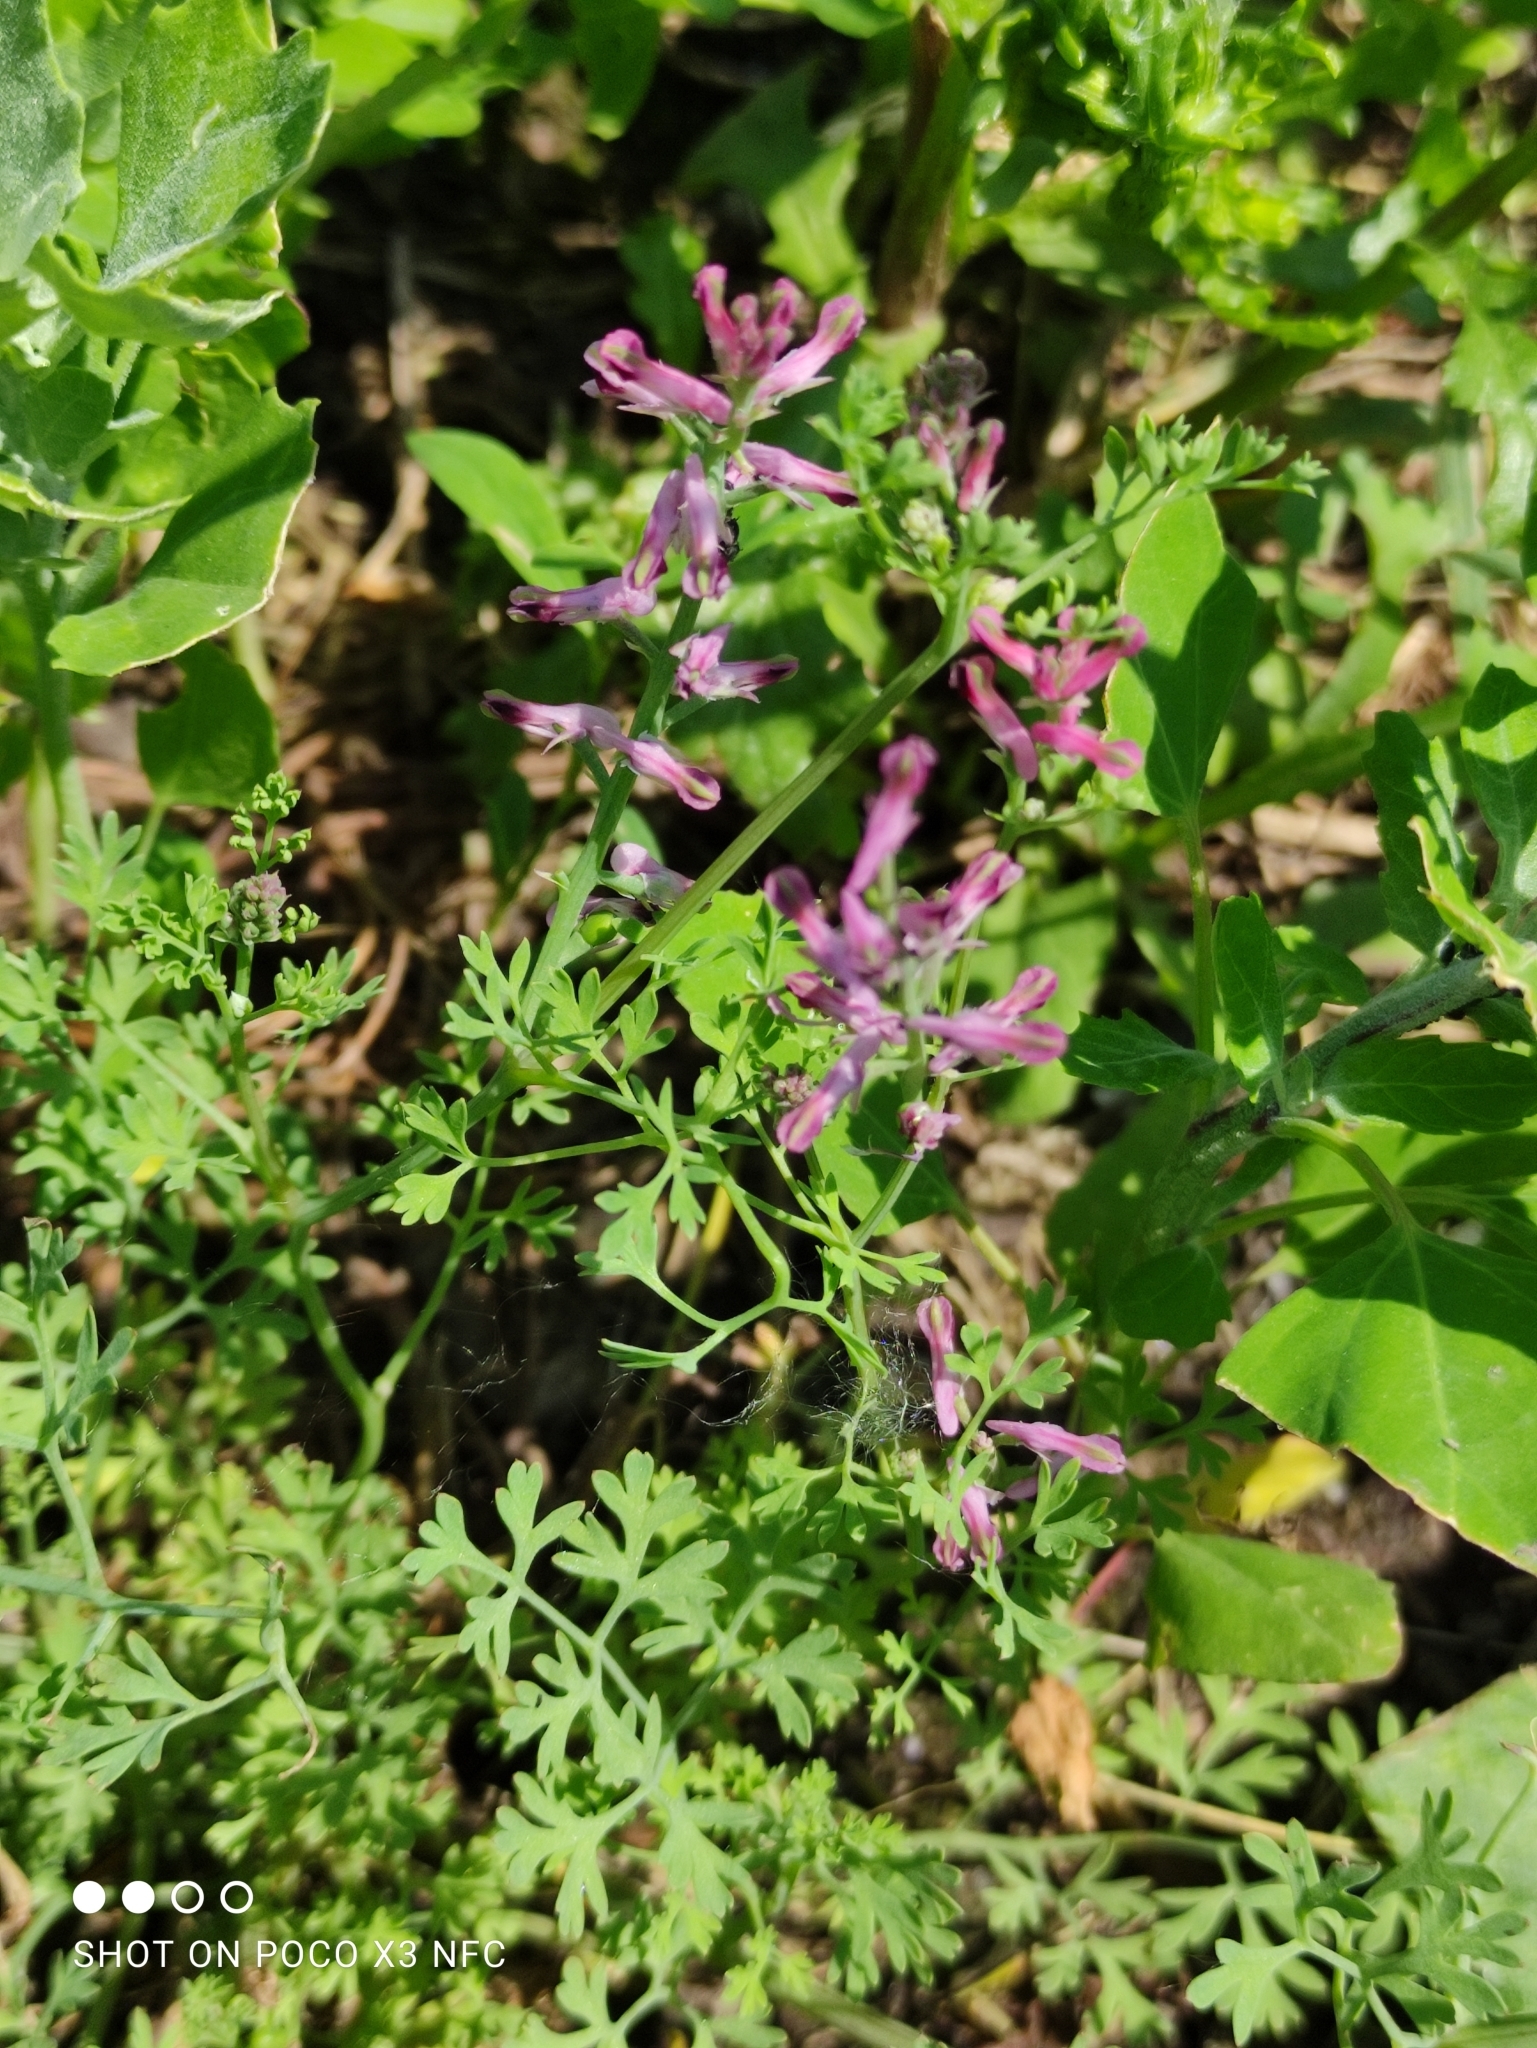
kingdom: Plantae
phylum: Tracheophyta
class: Magnoliopsida
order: Ranunculales
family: Papaveraceae
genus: Fumaria
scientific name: Fumaria officinalis
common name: Common fumitory
